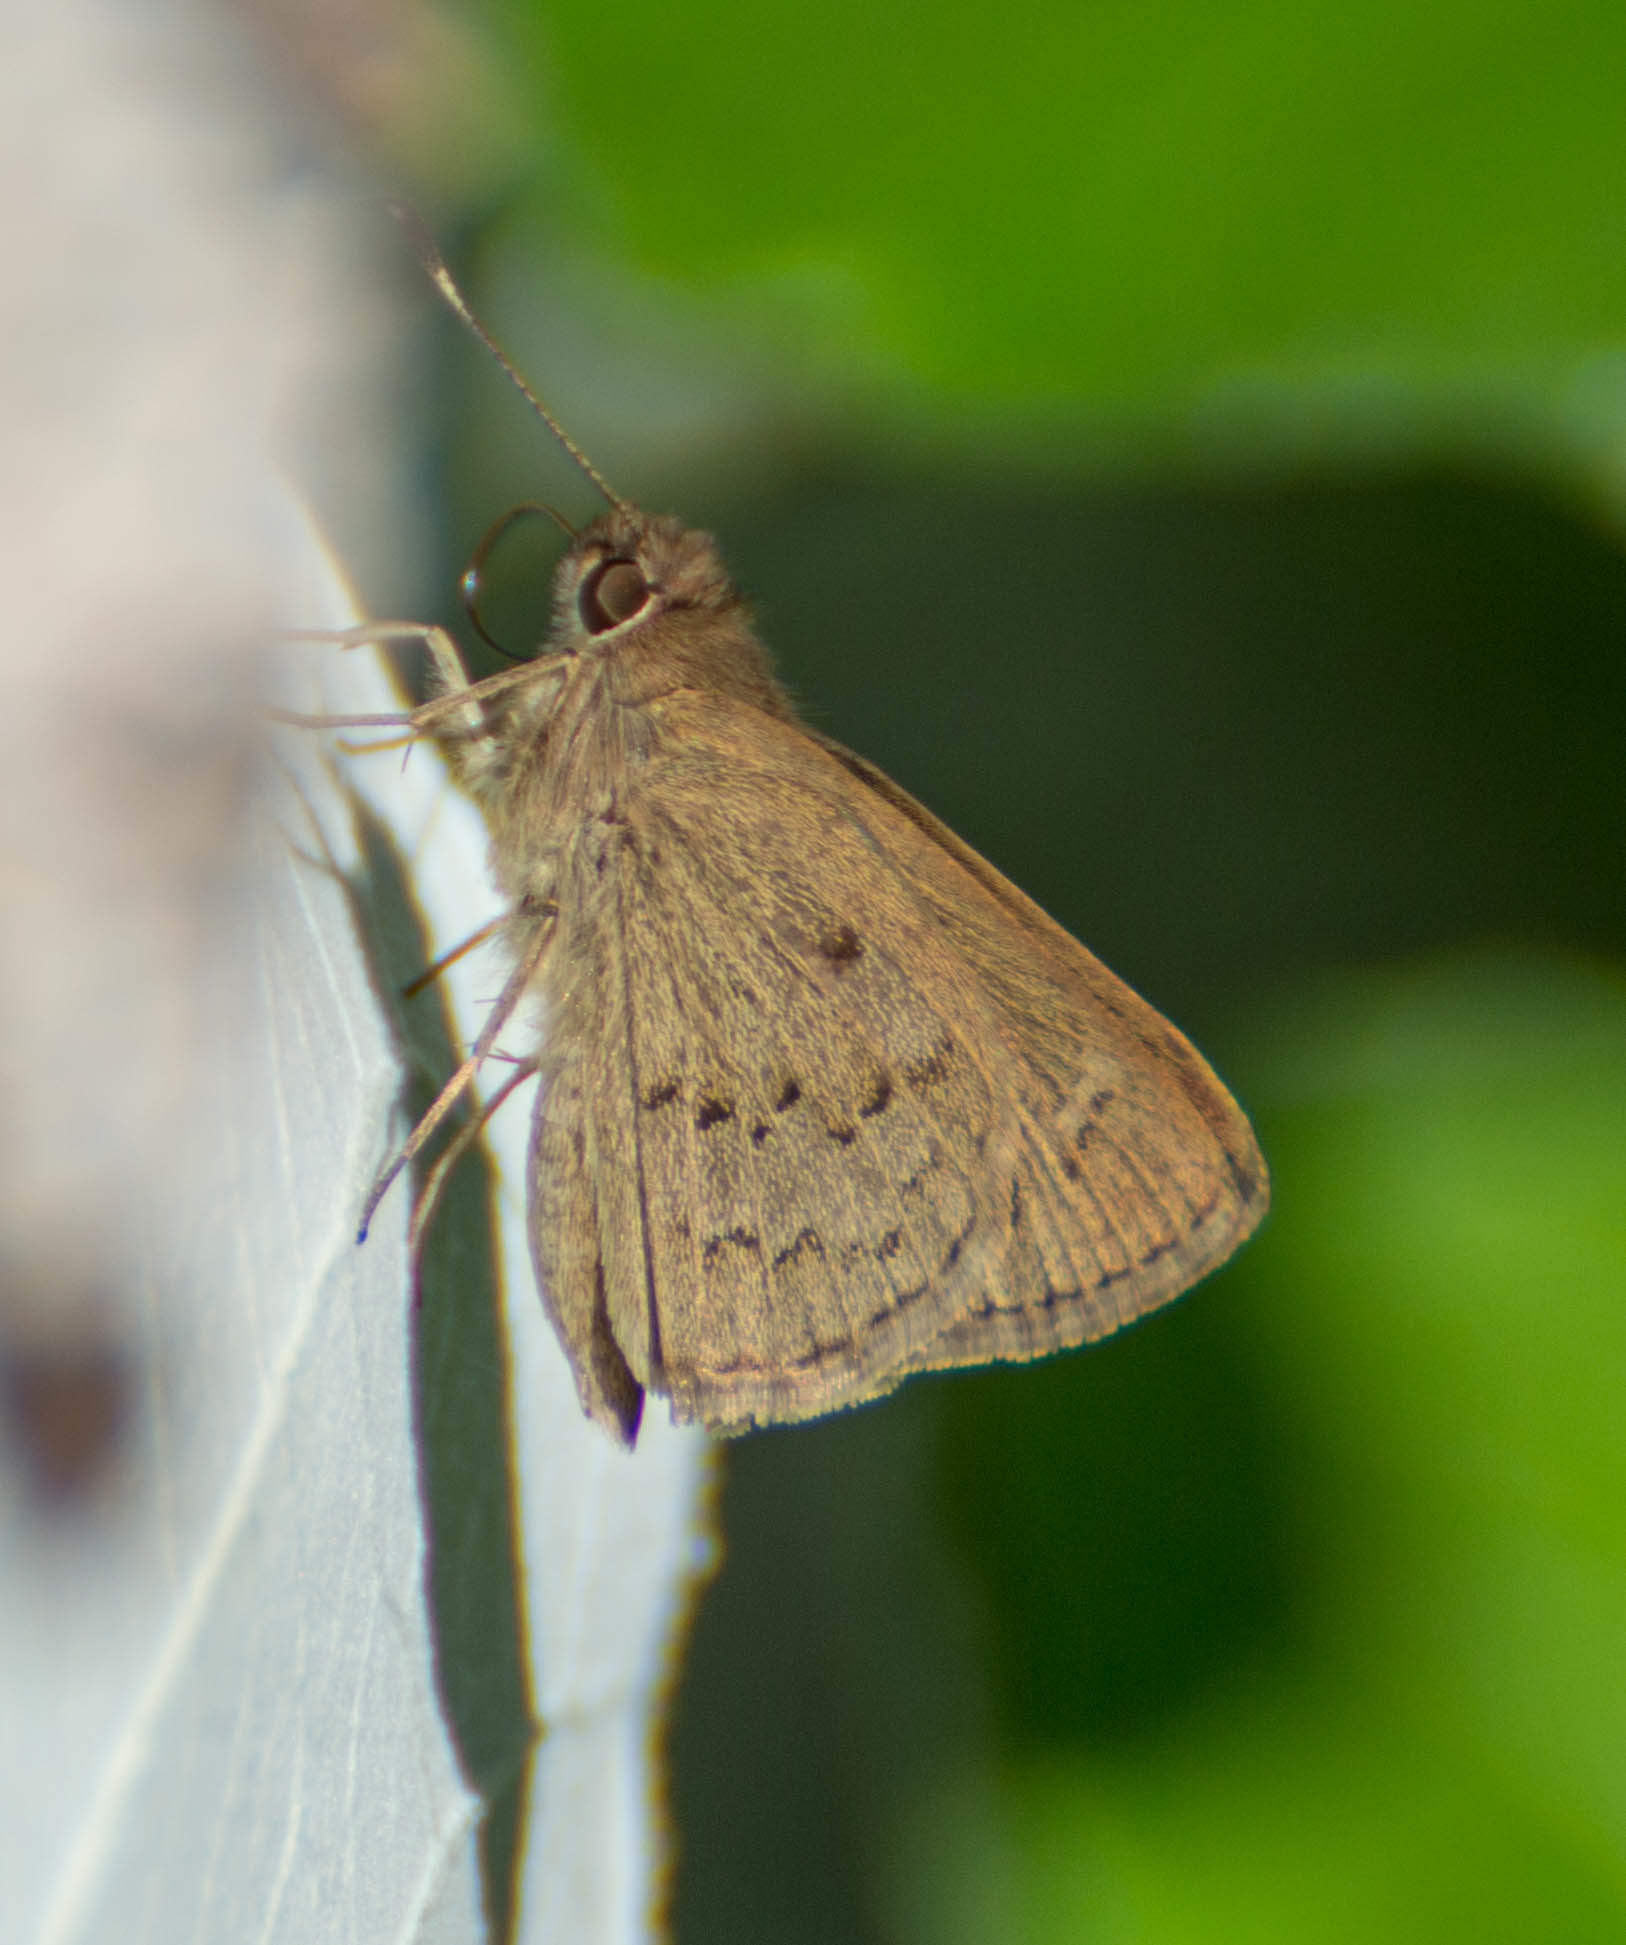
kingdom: Animalia
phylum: Arthropoda
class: Insecta
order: Lepidoptera
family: Hesperiidae
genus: Cymaenes
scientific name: Cymaenes gisca
